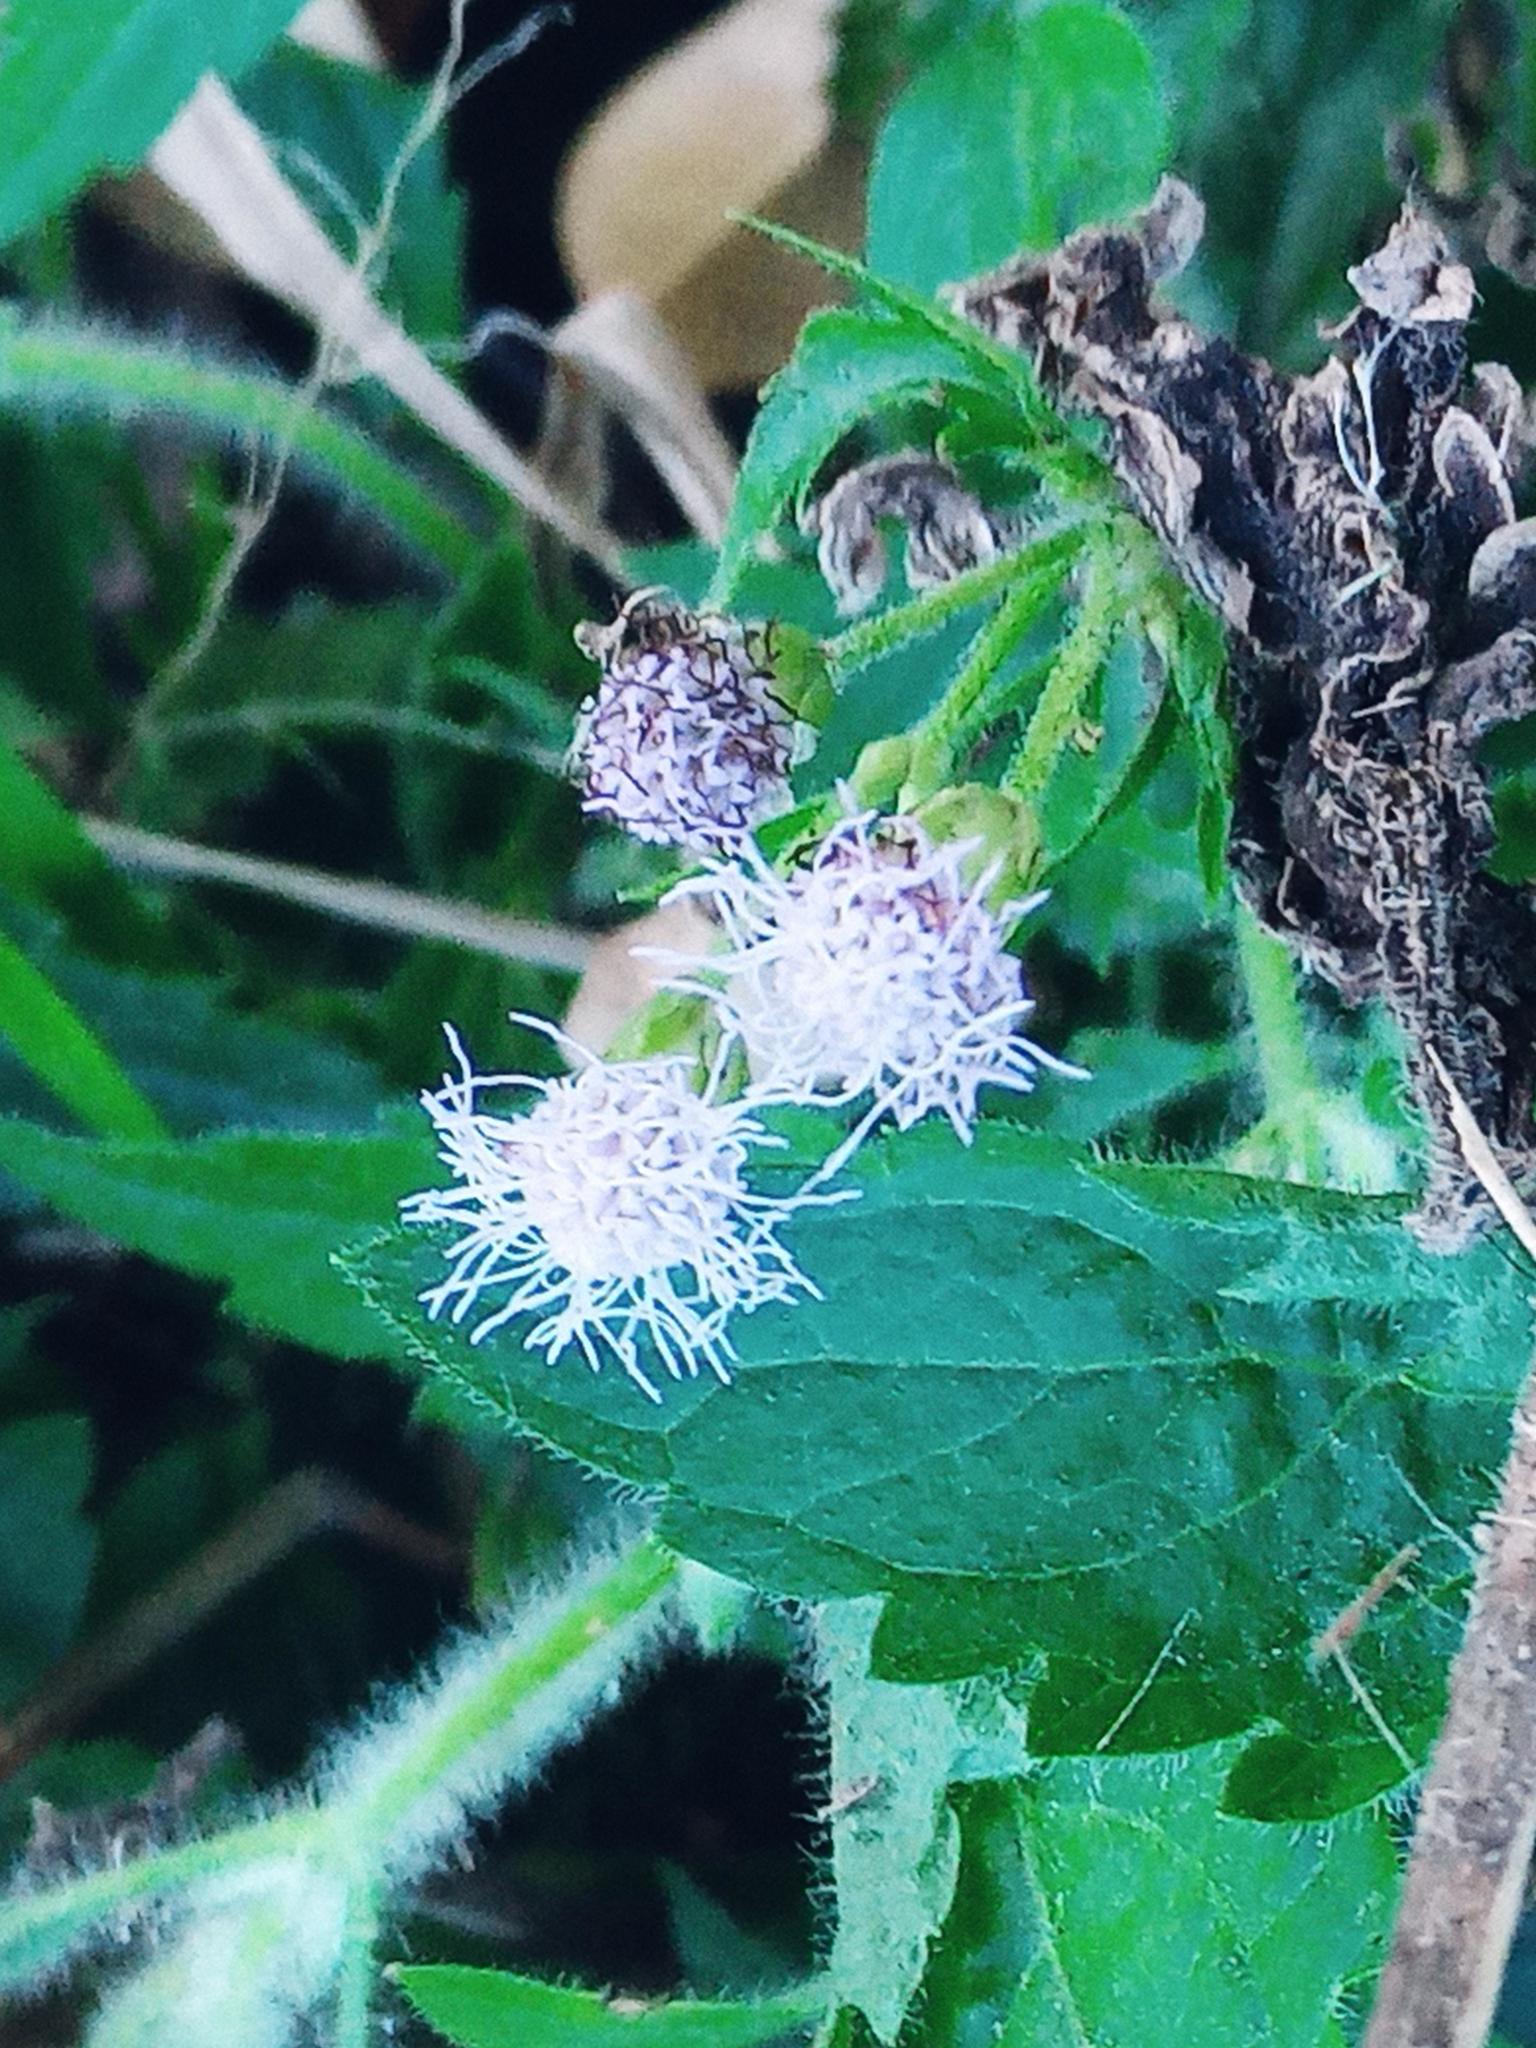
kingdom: Plantae
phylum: Tracheophyta
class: Magnoliopsida
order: Asterales
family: Asteraceae
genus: Praxelis
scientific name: Praxelis clematidea
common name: Praxelis
